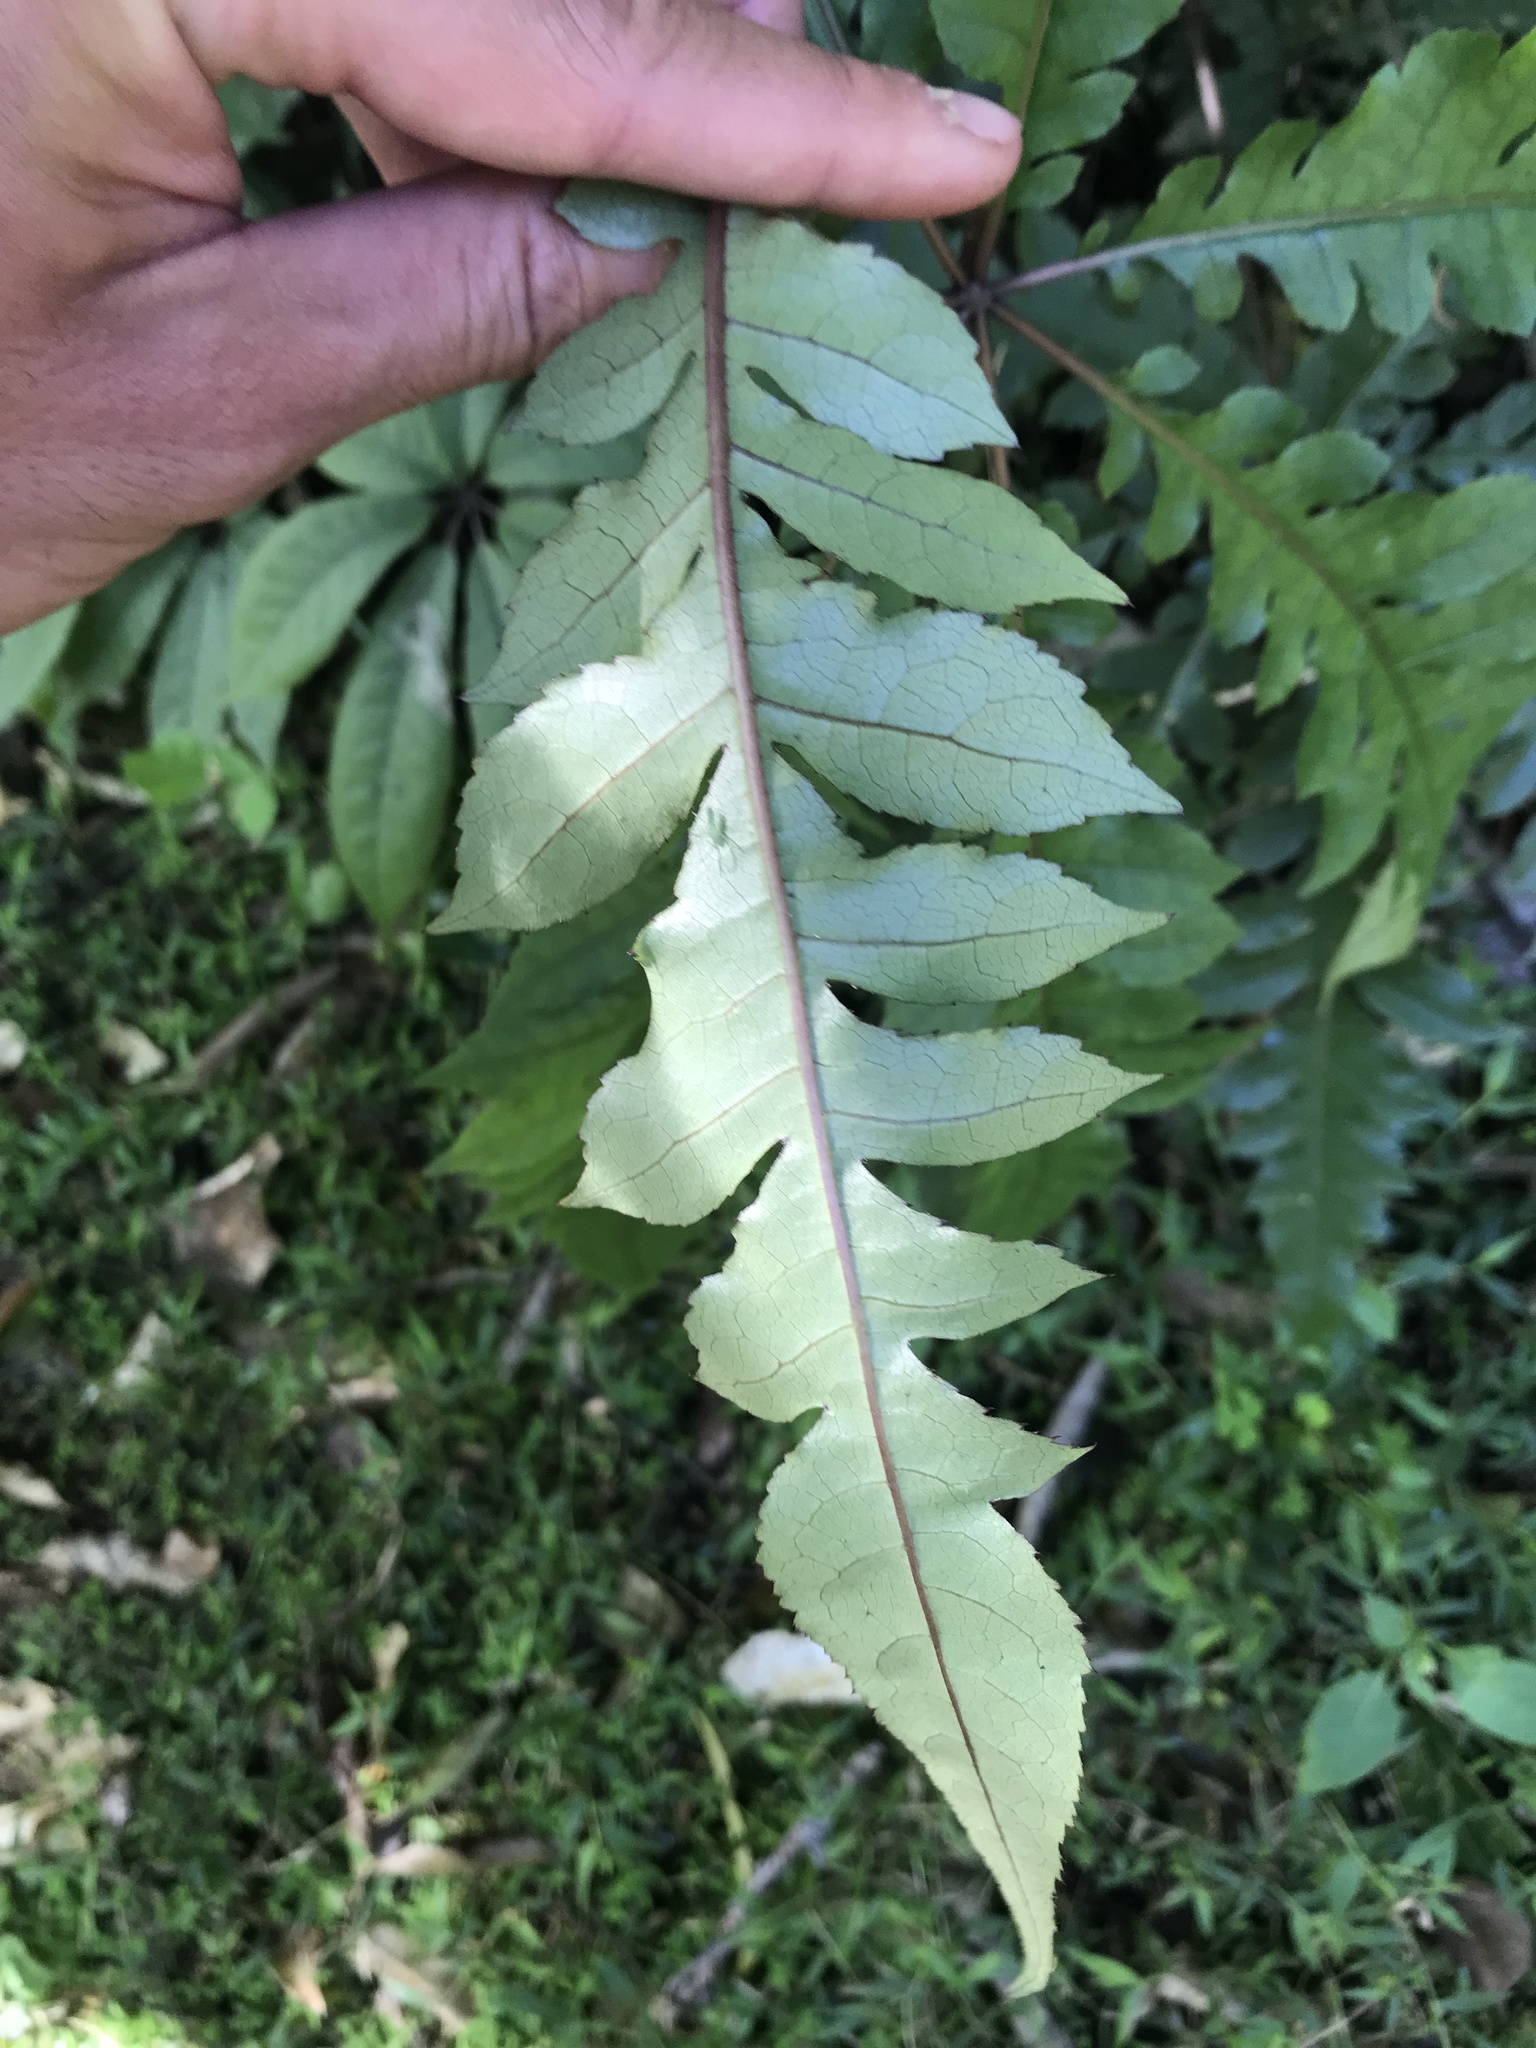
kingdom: Plantae
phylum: Tracheophyta
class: Magnoliopsida
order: Apiales
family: Araliaceae
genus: Schefflera
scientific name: Schefflera digitata
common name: Pate
